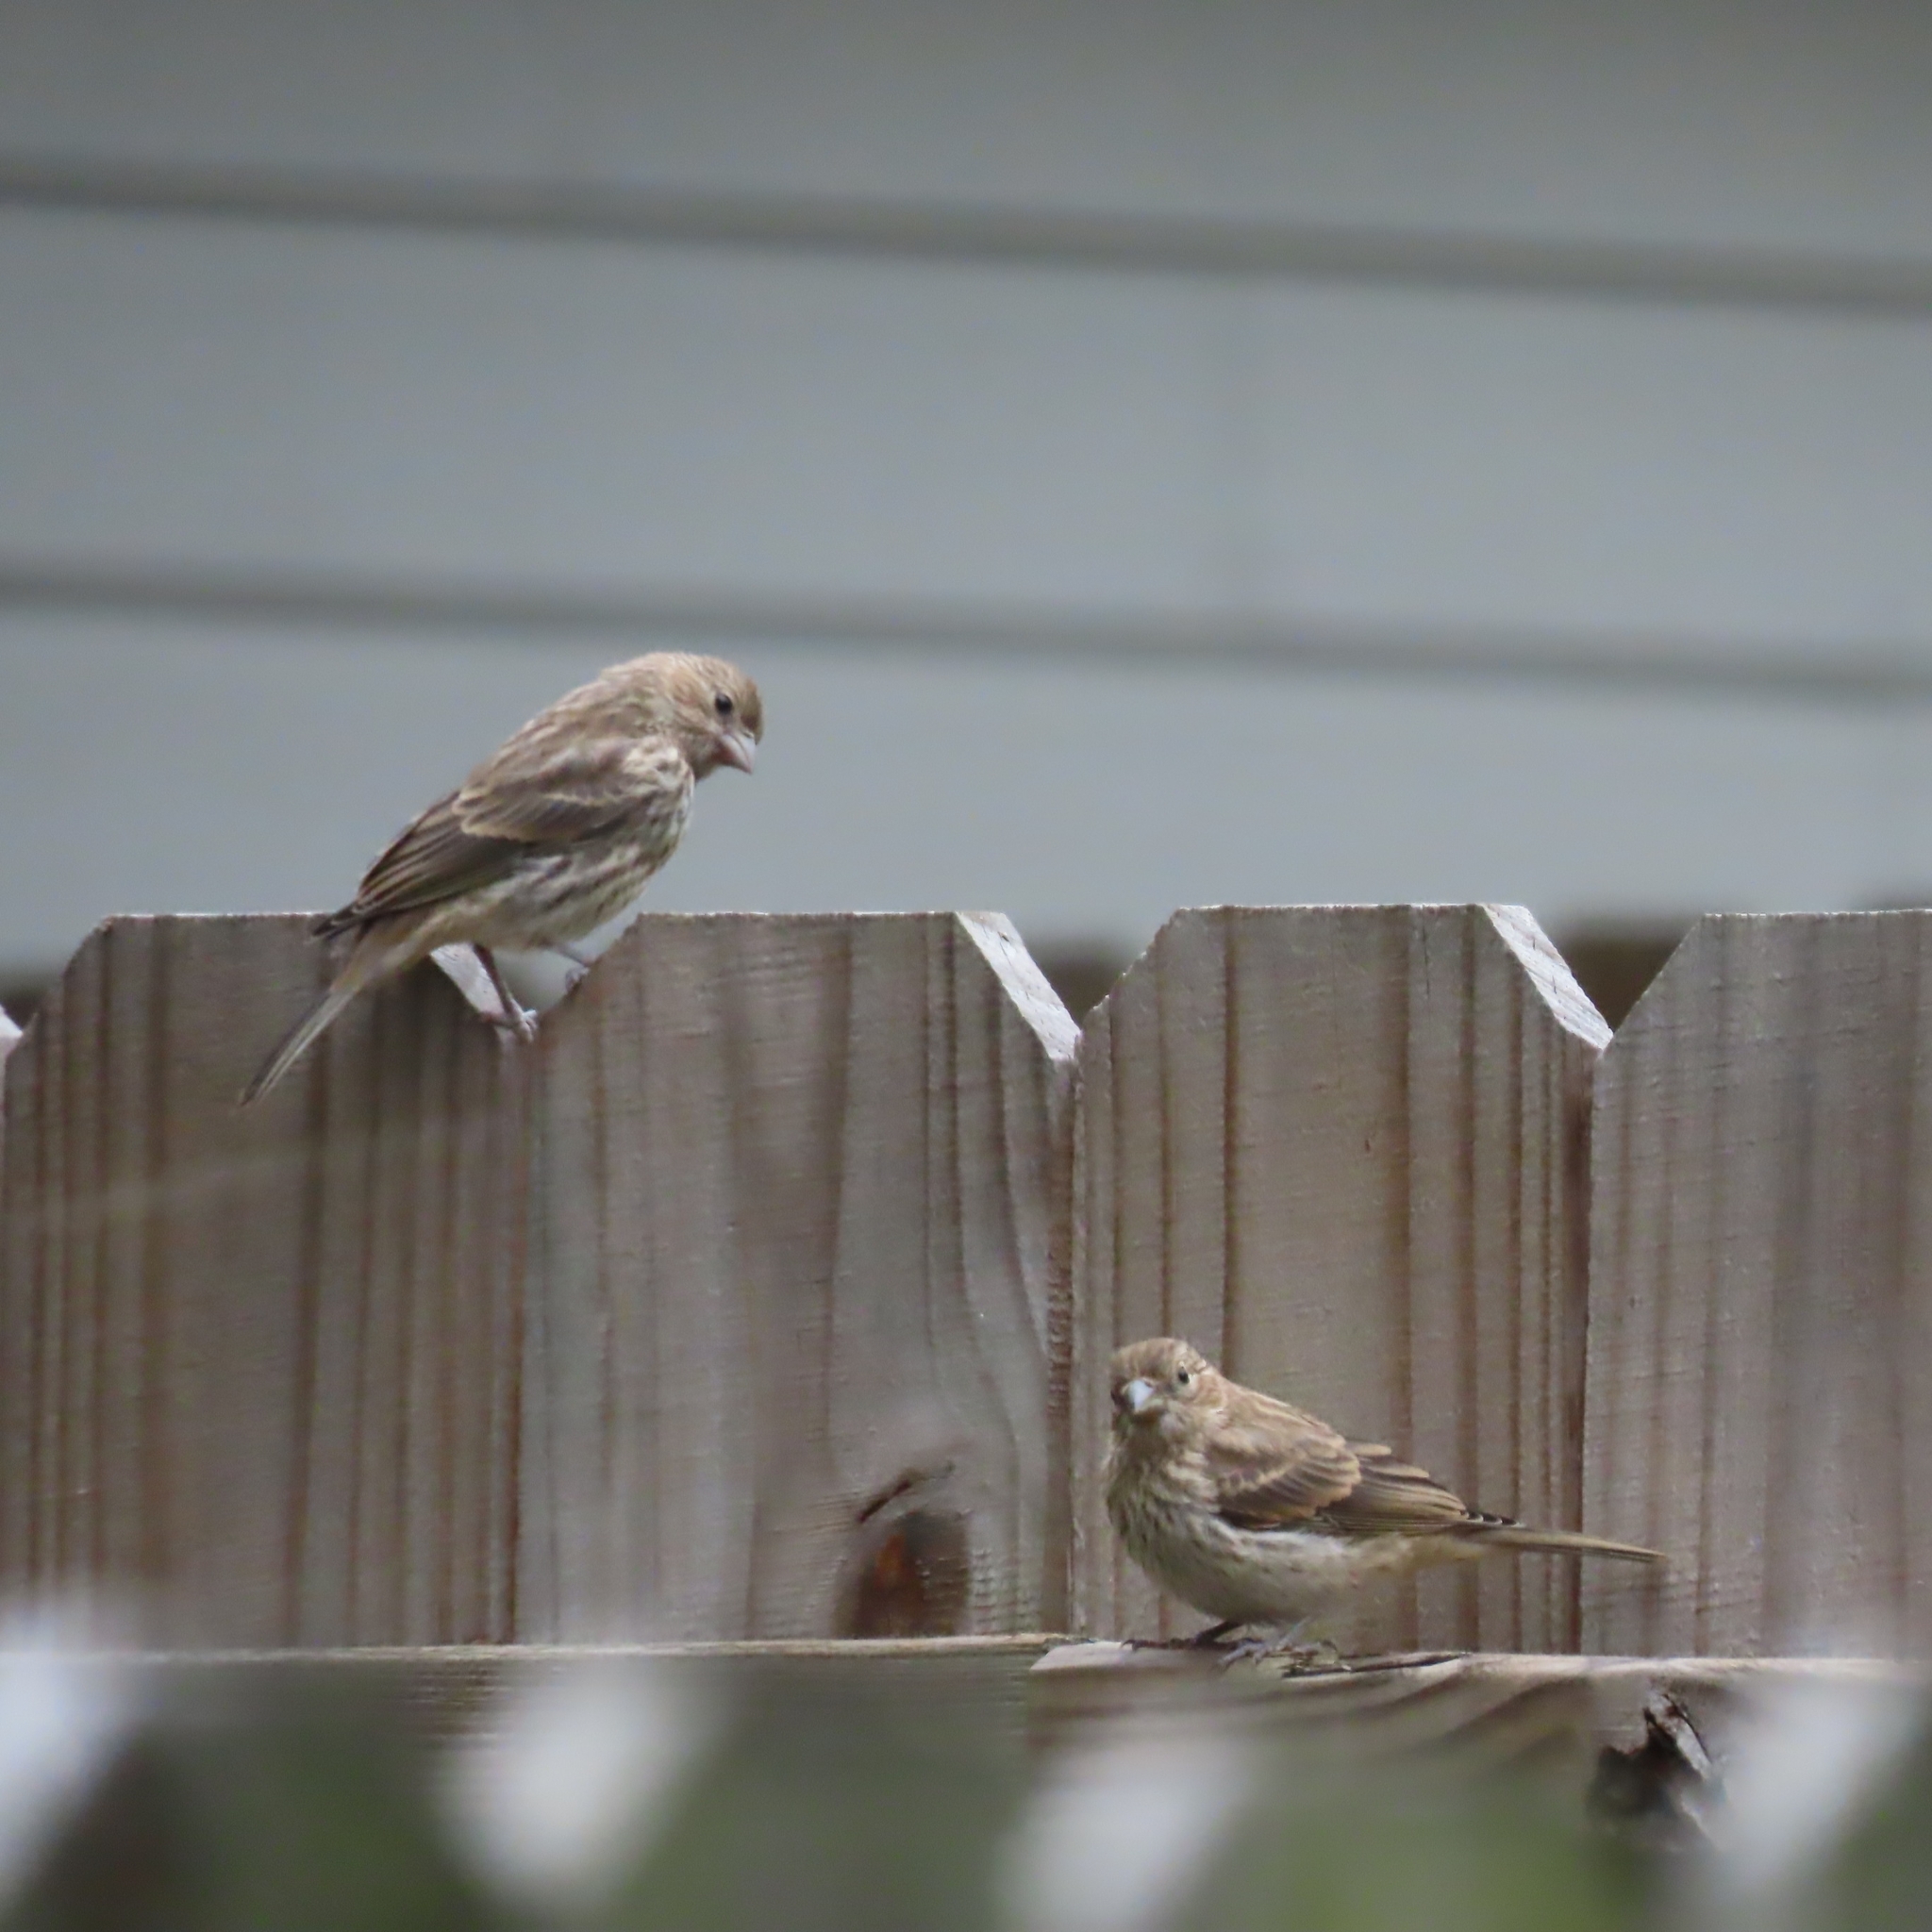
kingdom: Animalia
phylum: Chordata
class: Aves
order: Passeriformes
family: Fringillidae
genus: Haemorhous
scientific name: Haemorhous mexicanus
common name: House finch
